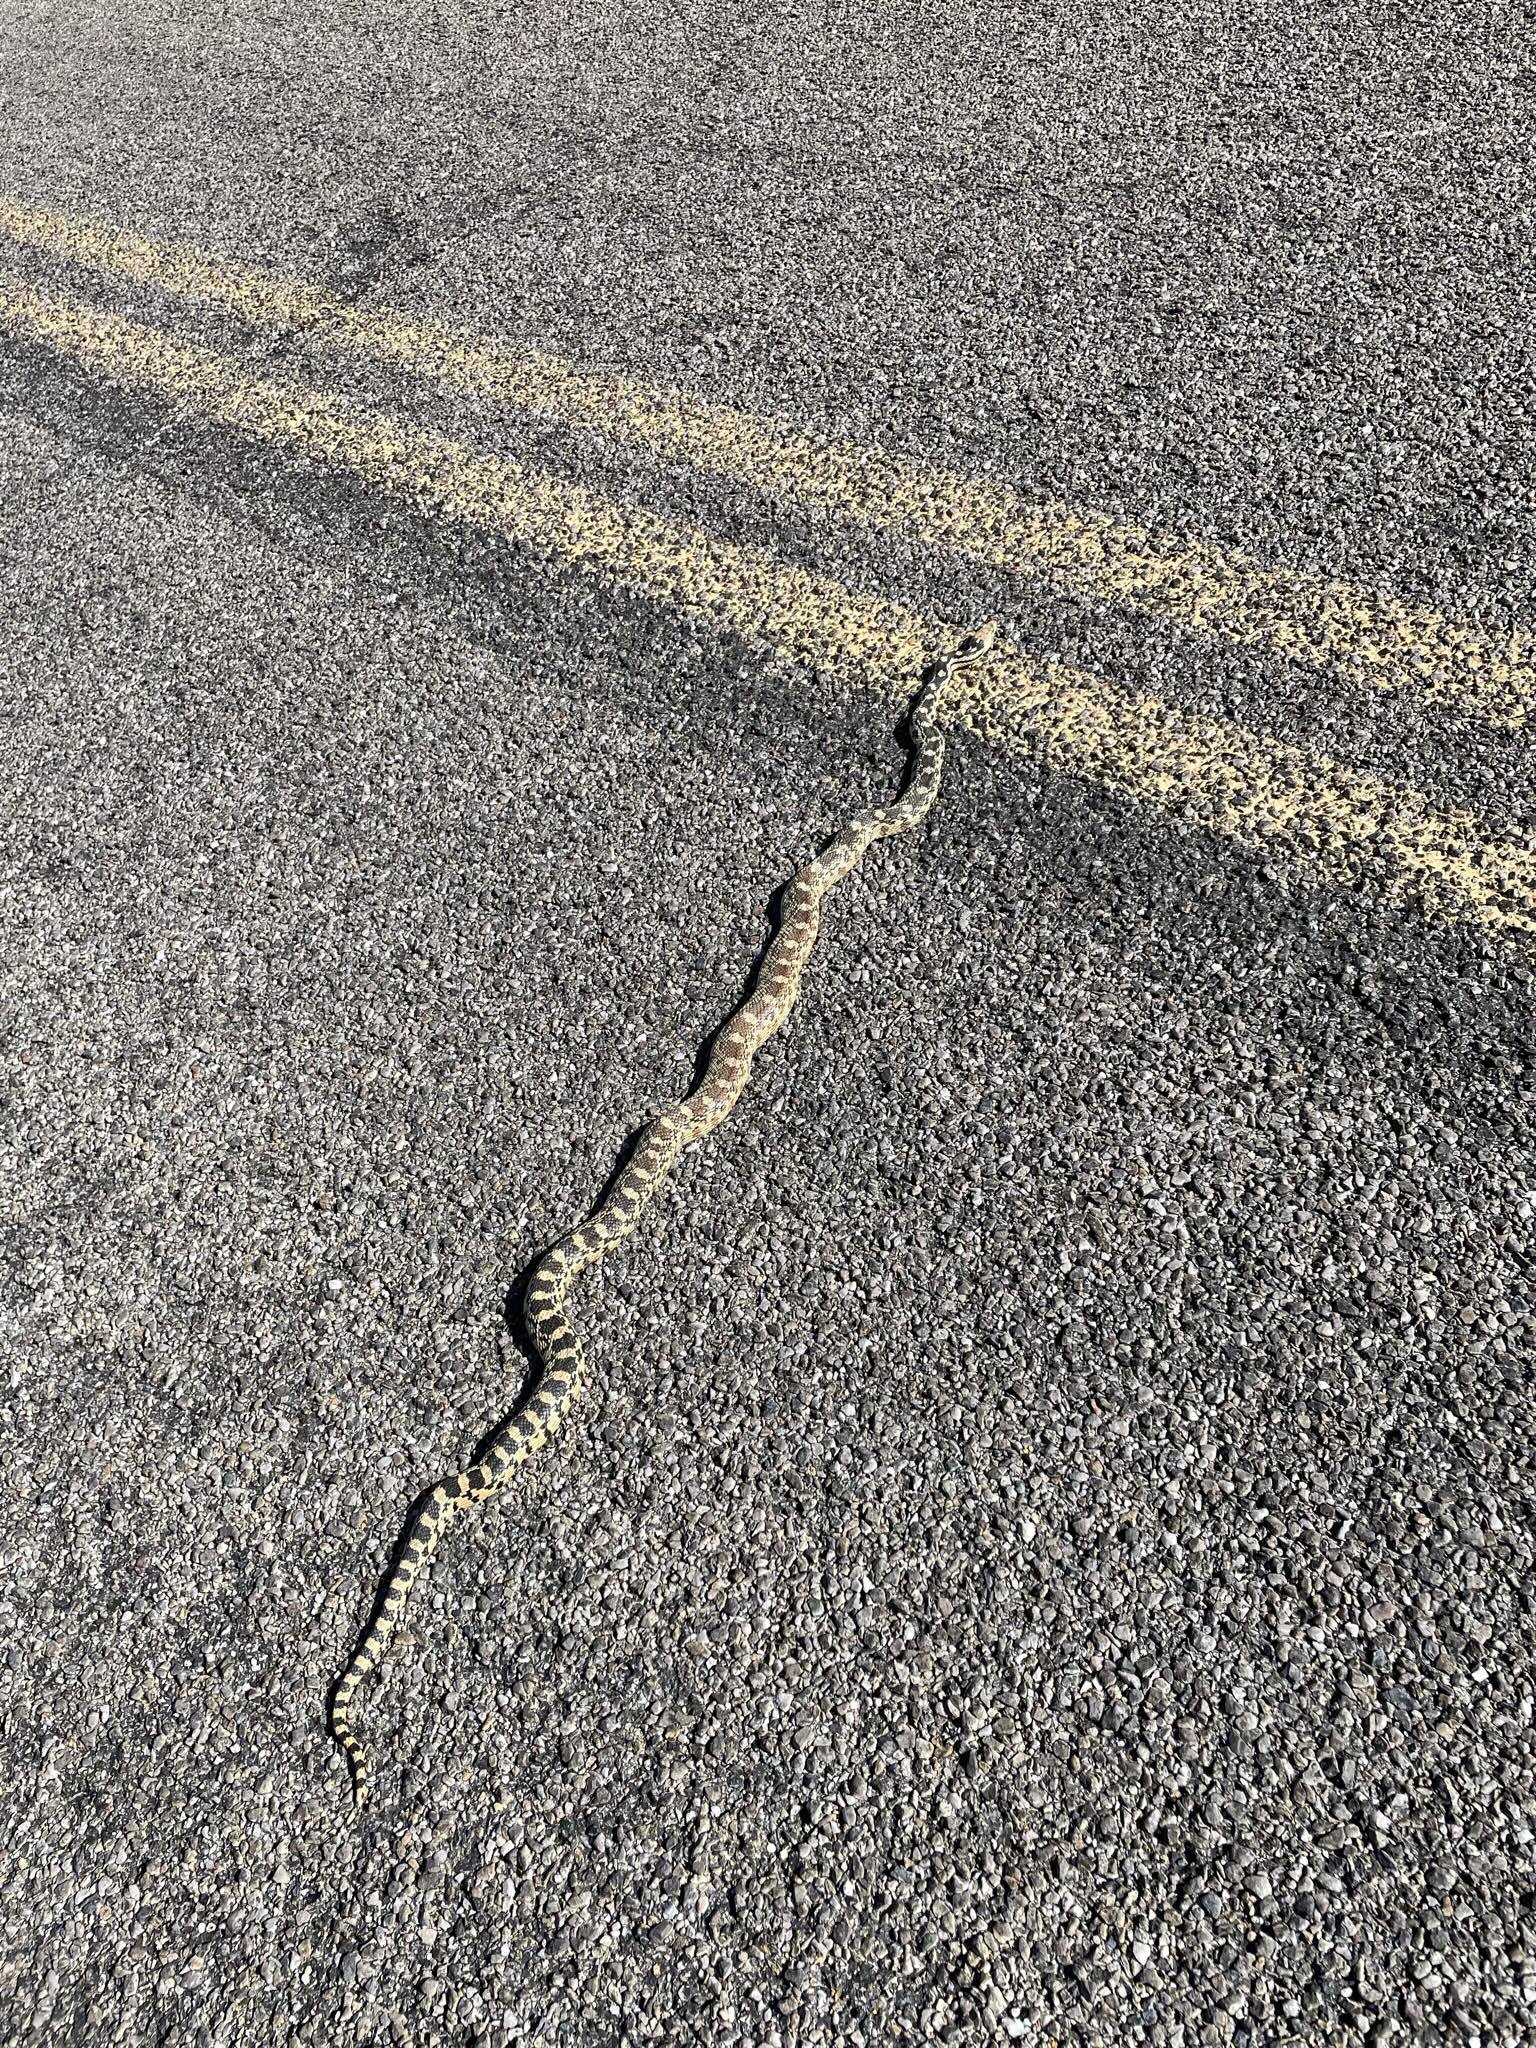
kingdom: Animalia
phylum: Chordata
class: Squamata
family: Colubridae
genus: Pituophis
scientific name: Pituophis catenifer
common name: Gopher snake
